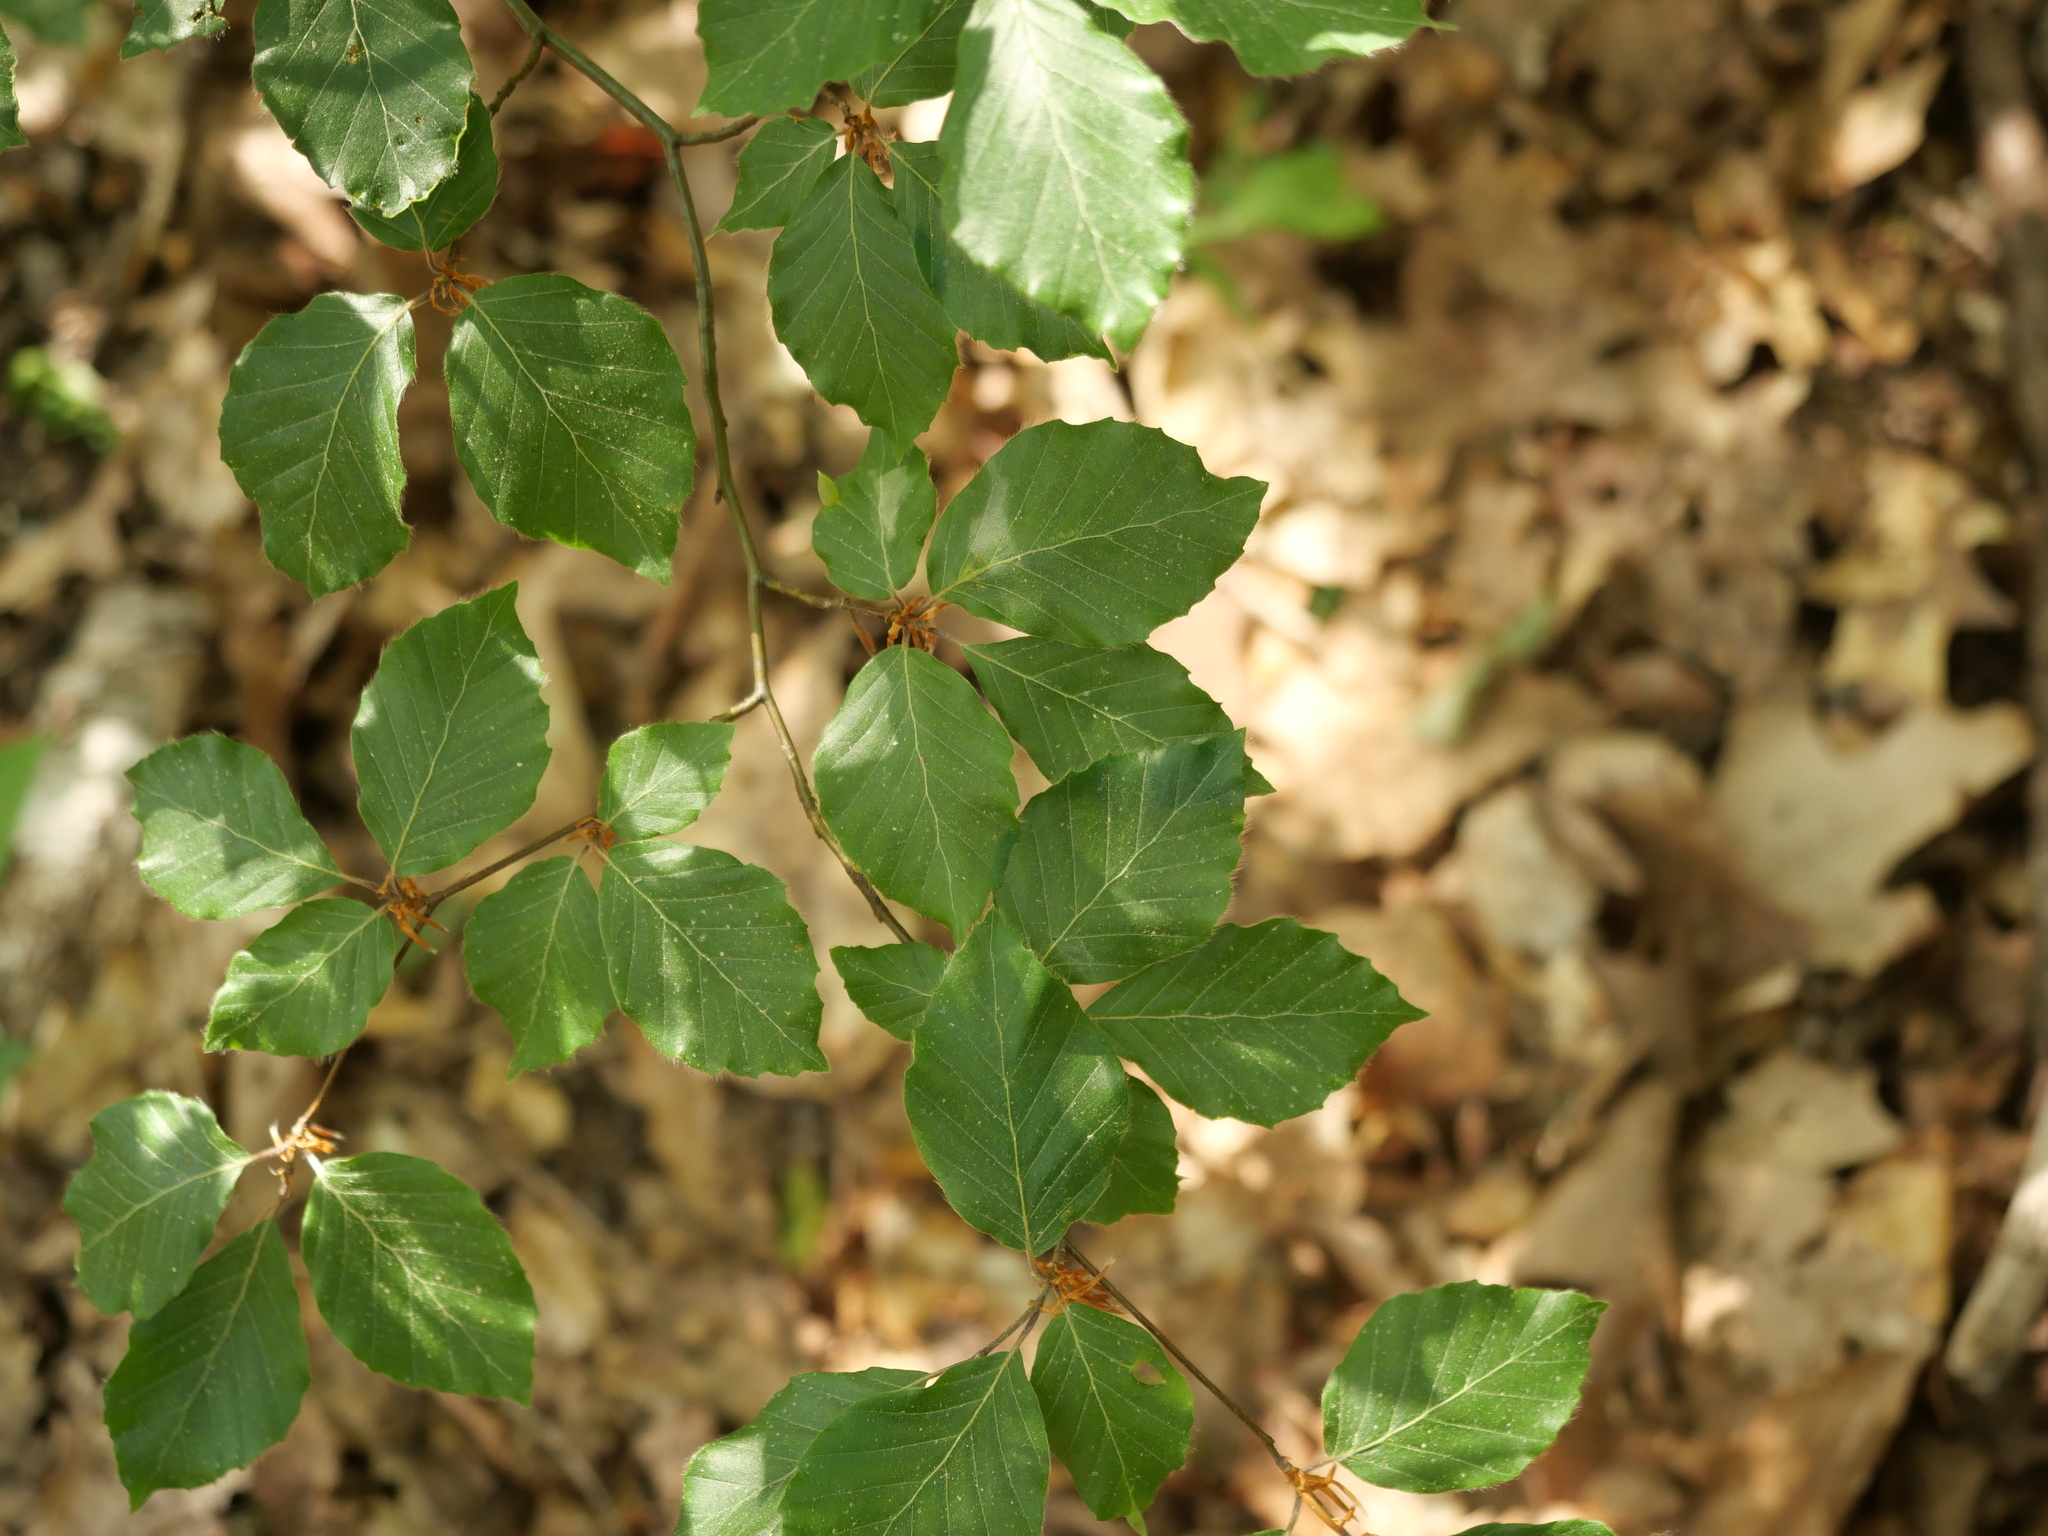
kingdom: Plantae
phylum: Tracheophyta
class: Magnoliopsida
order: Fagales
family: Fagaceae
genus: Fagus
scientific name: Fagus sylvatica
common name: Beech
